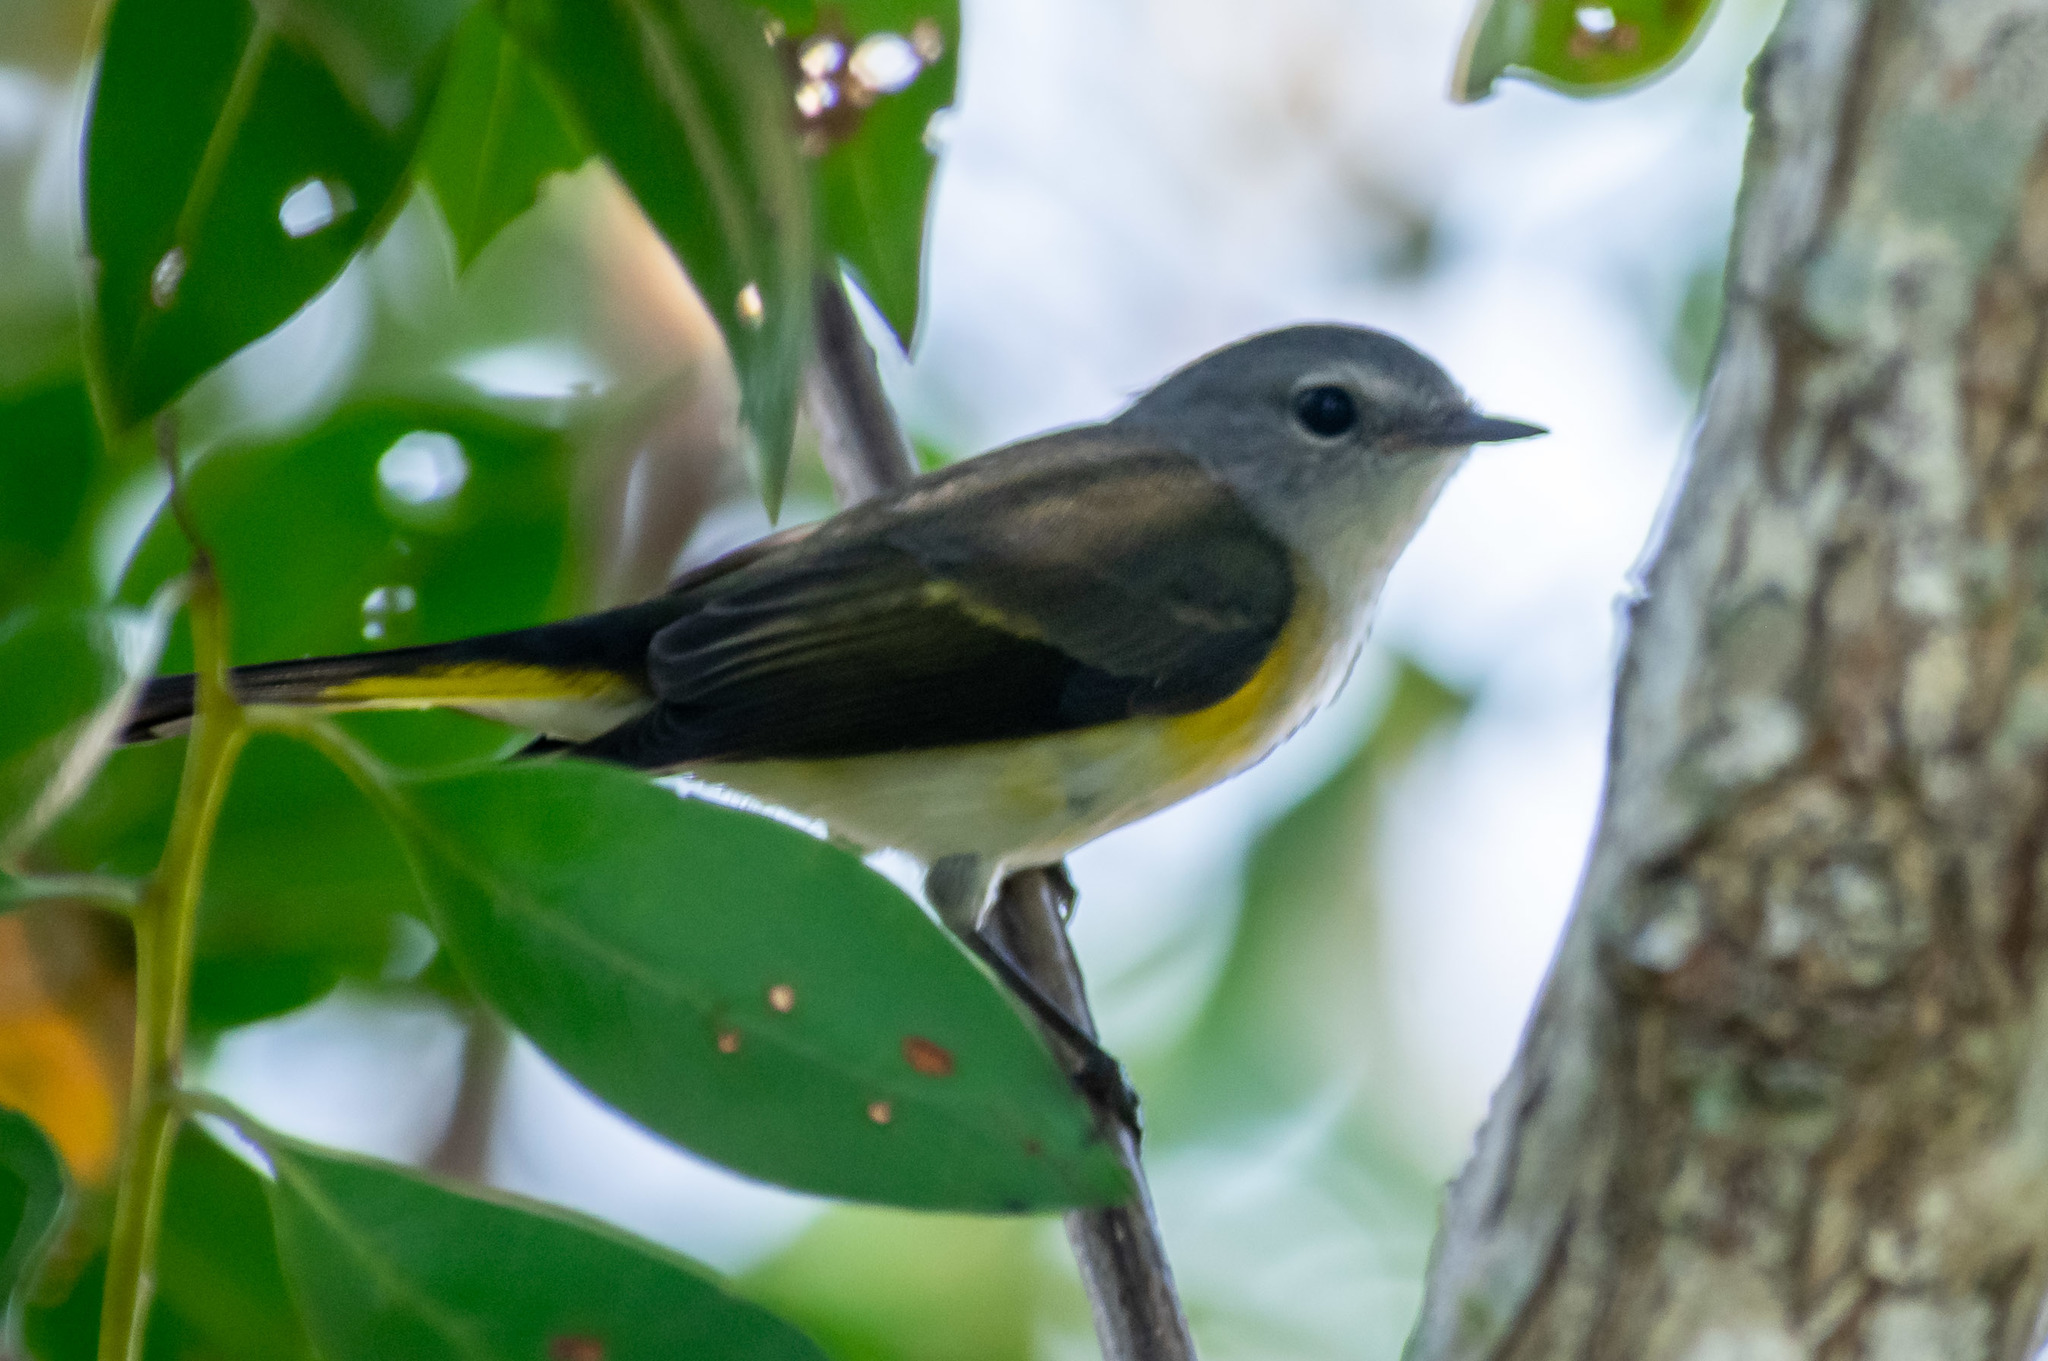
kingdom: Animalia
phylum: Chordata
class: Aves
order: Passeriformes
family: Parulidae
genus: Setophaga
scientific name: Setophaga ruticilla
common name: American redstart
